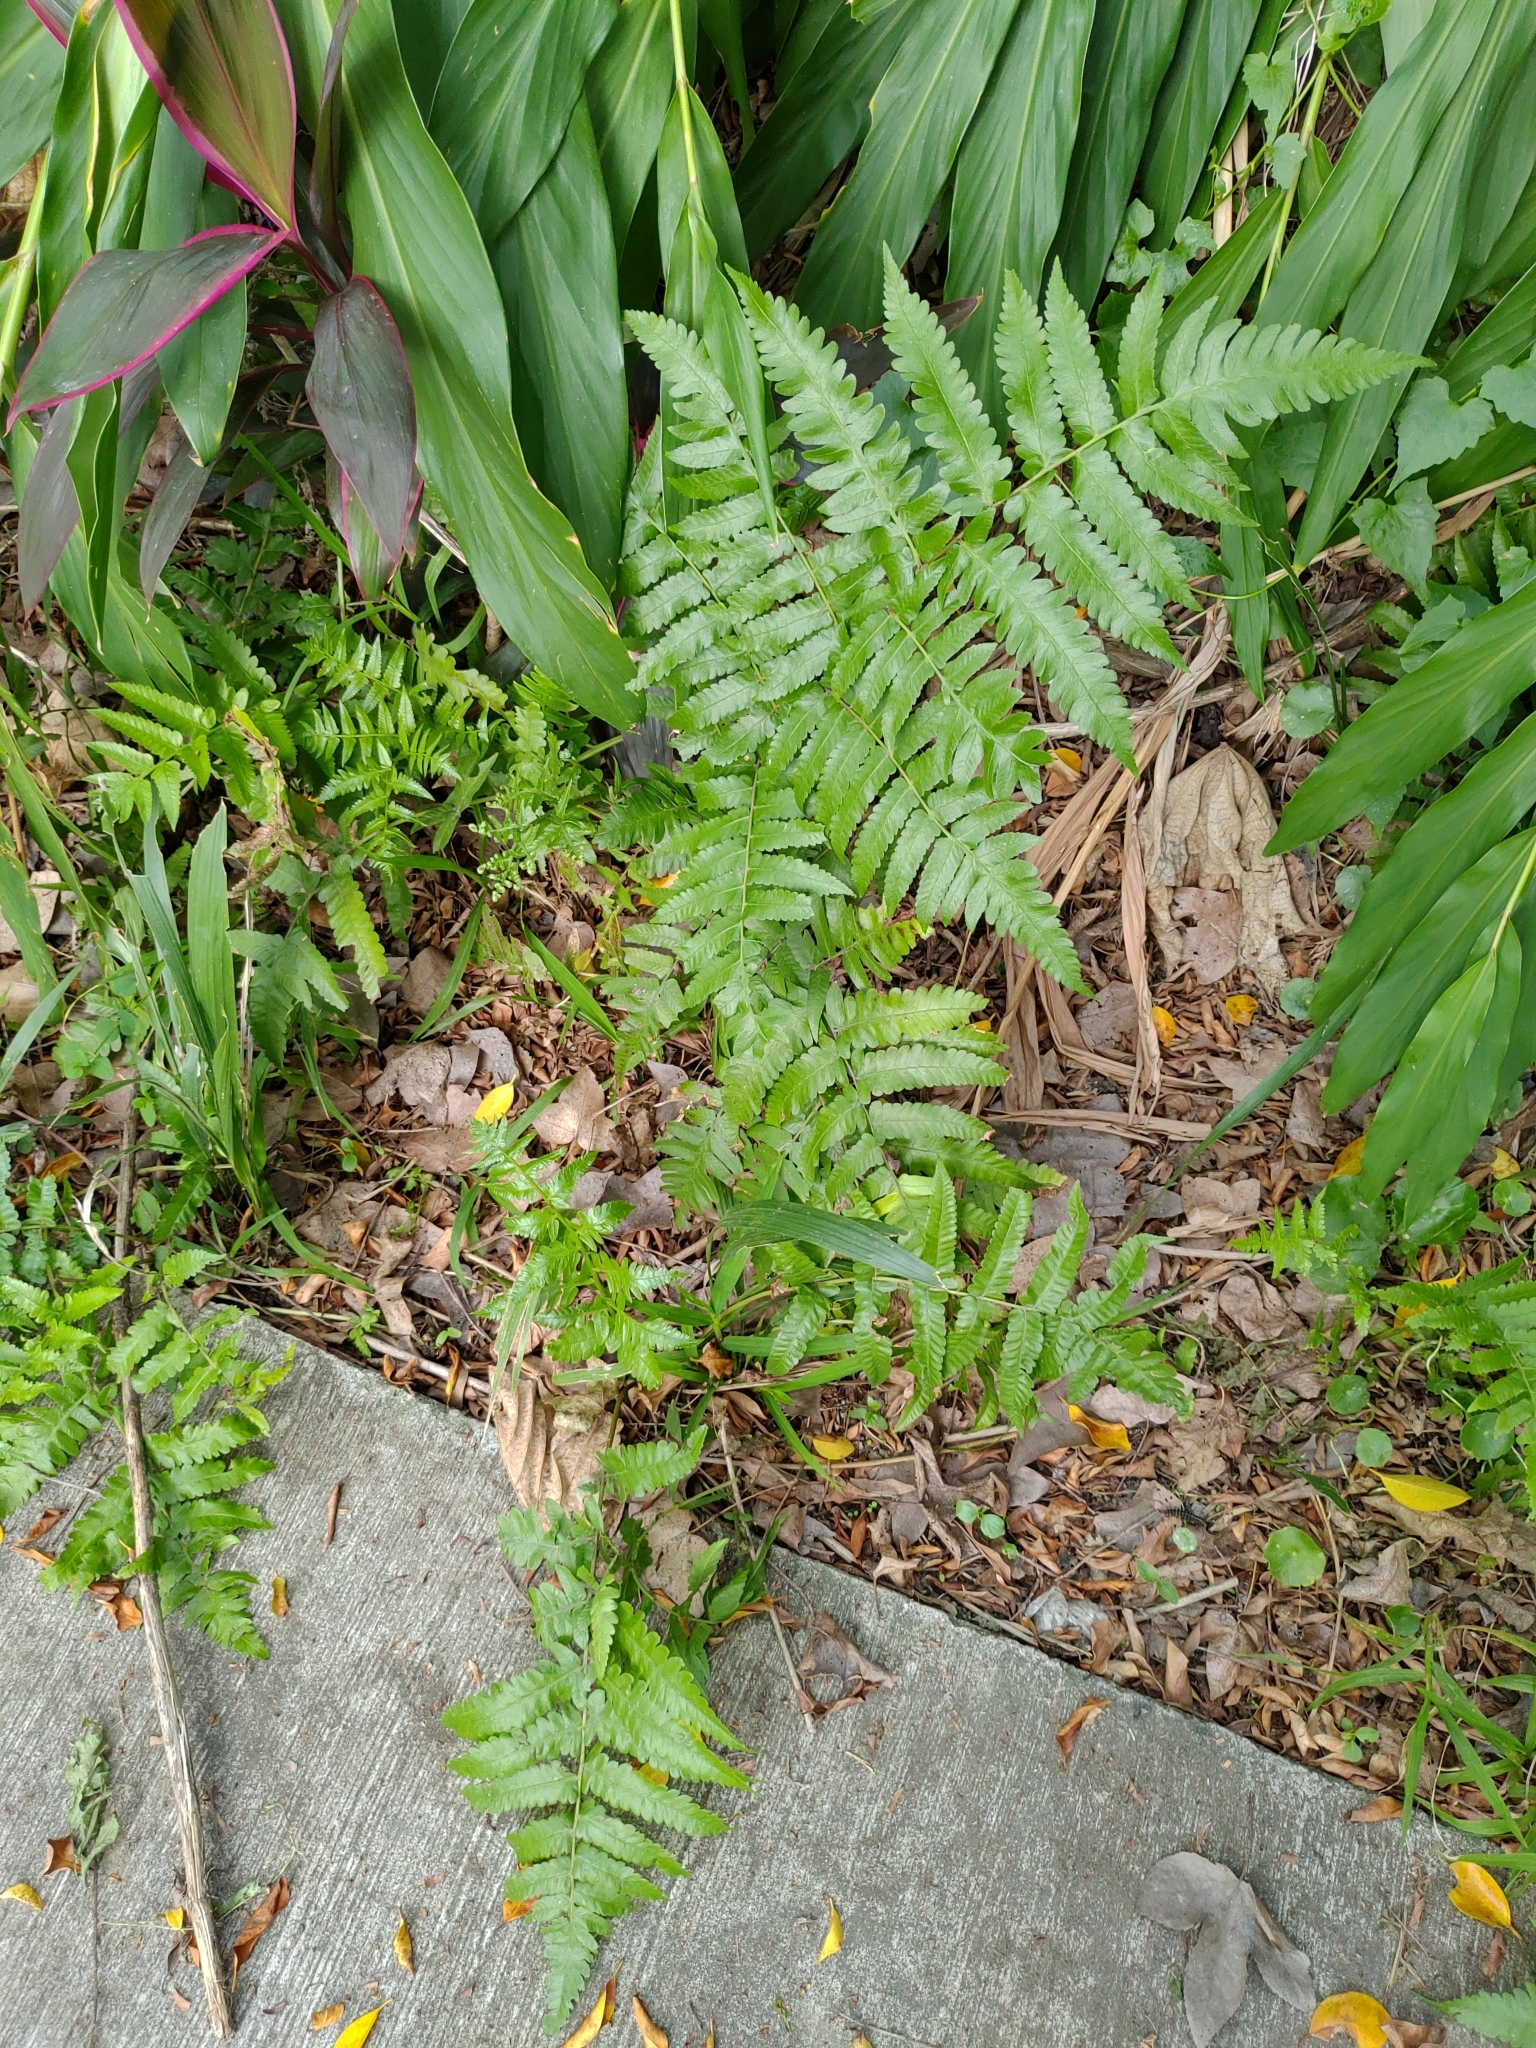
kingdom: Plantae
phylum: Tracheophyta
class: Polypodiopsida
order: Polypodiales
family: Athyriaceae
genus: Diplazium
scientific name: Diplazium esculentum
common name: Vegetable fern
